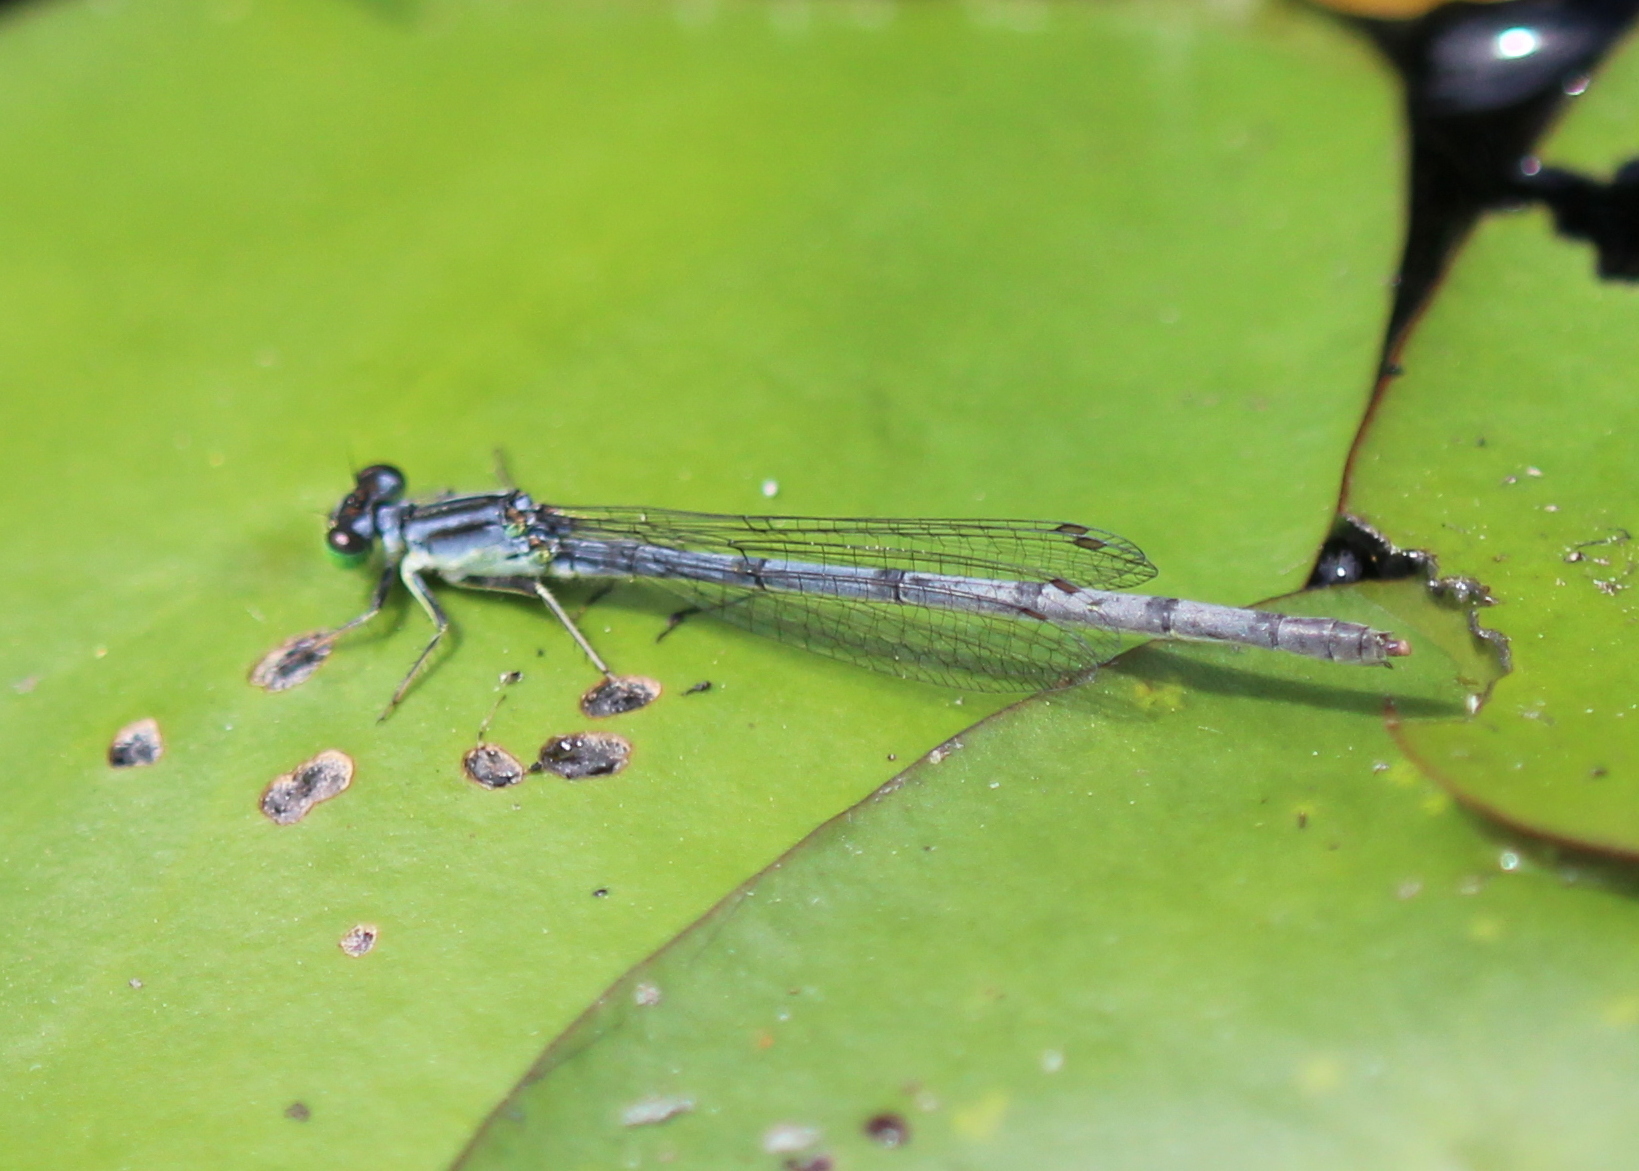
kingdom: Animalia
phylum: Arthropoda
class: Insecta
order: Odonata
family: Coenagrionidae
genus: Ischnura
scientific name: Ischnura verticalis
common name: Eastern forktail
